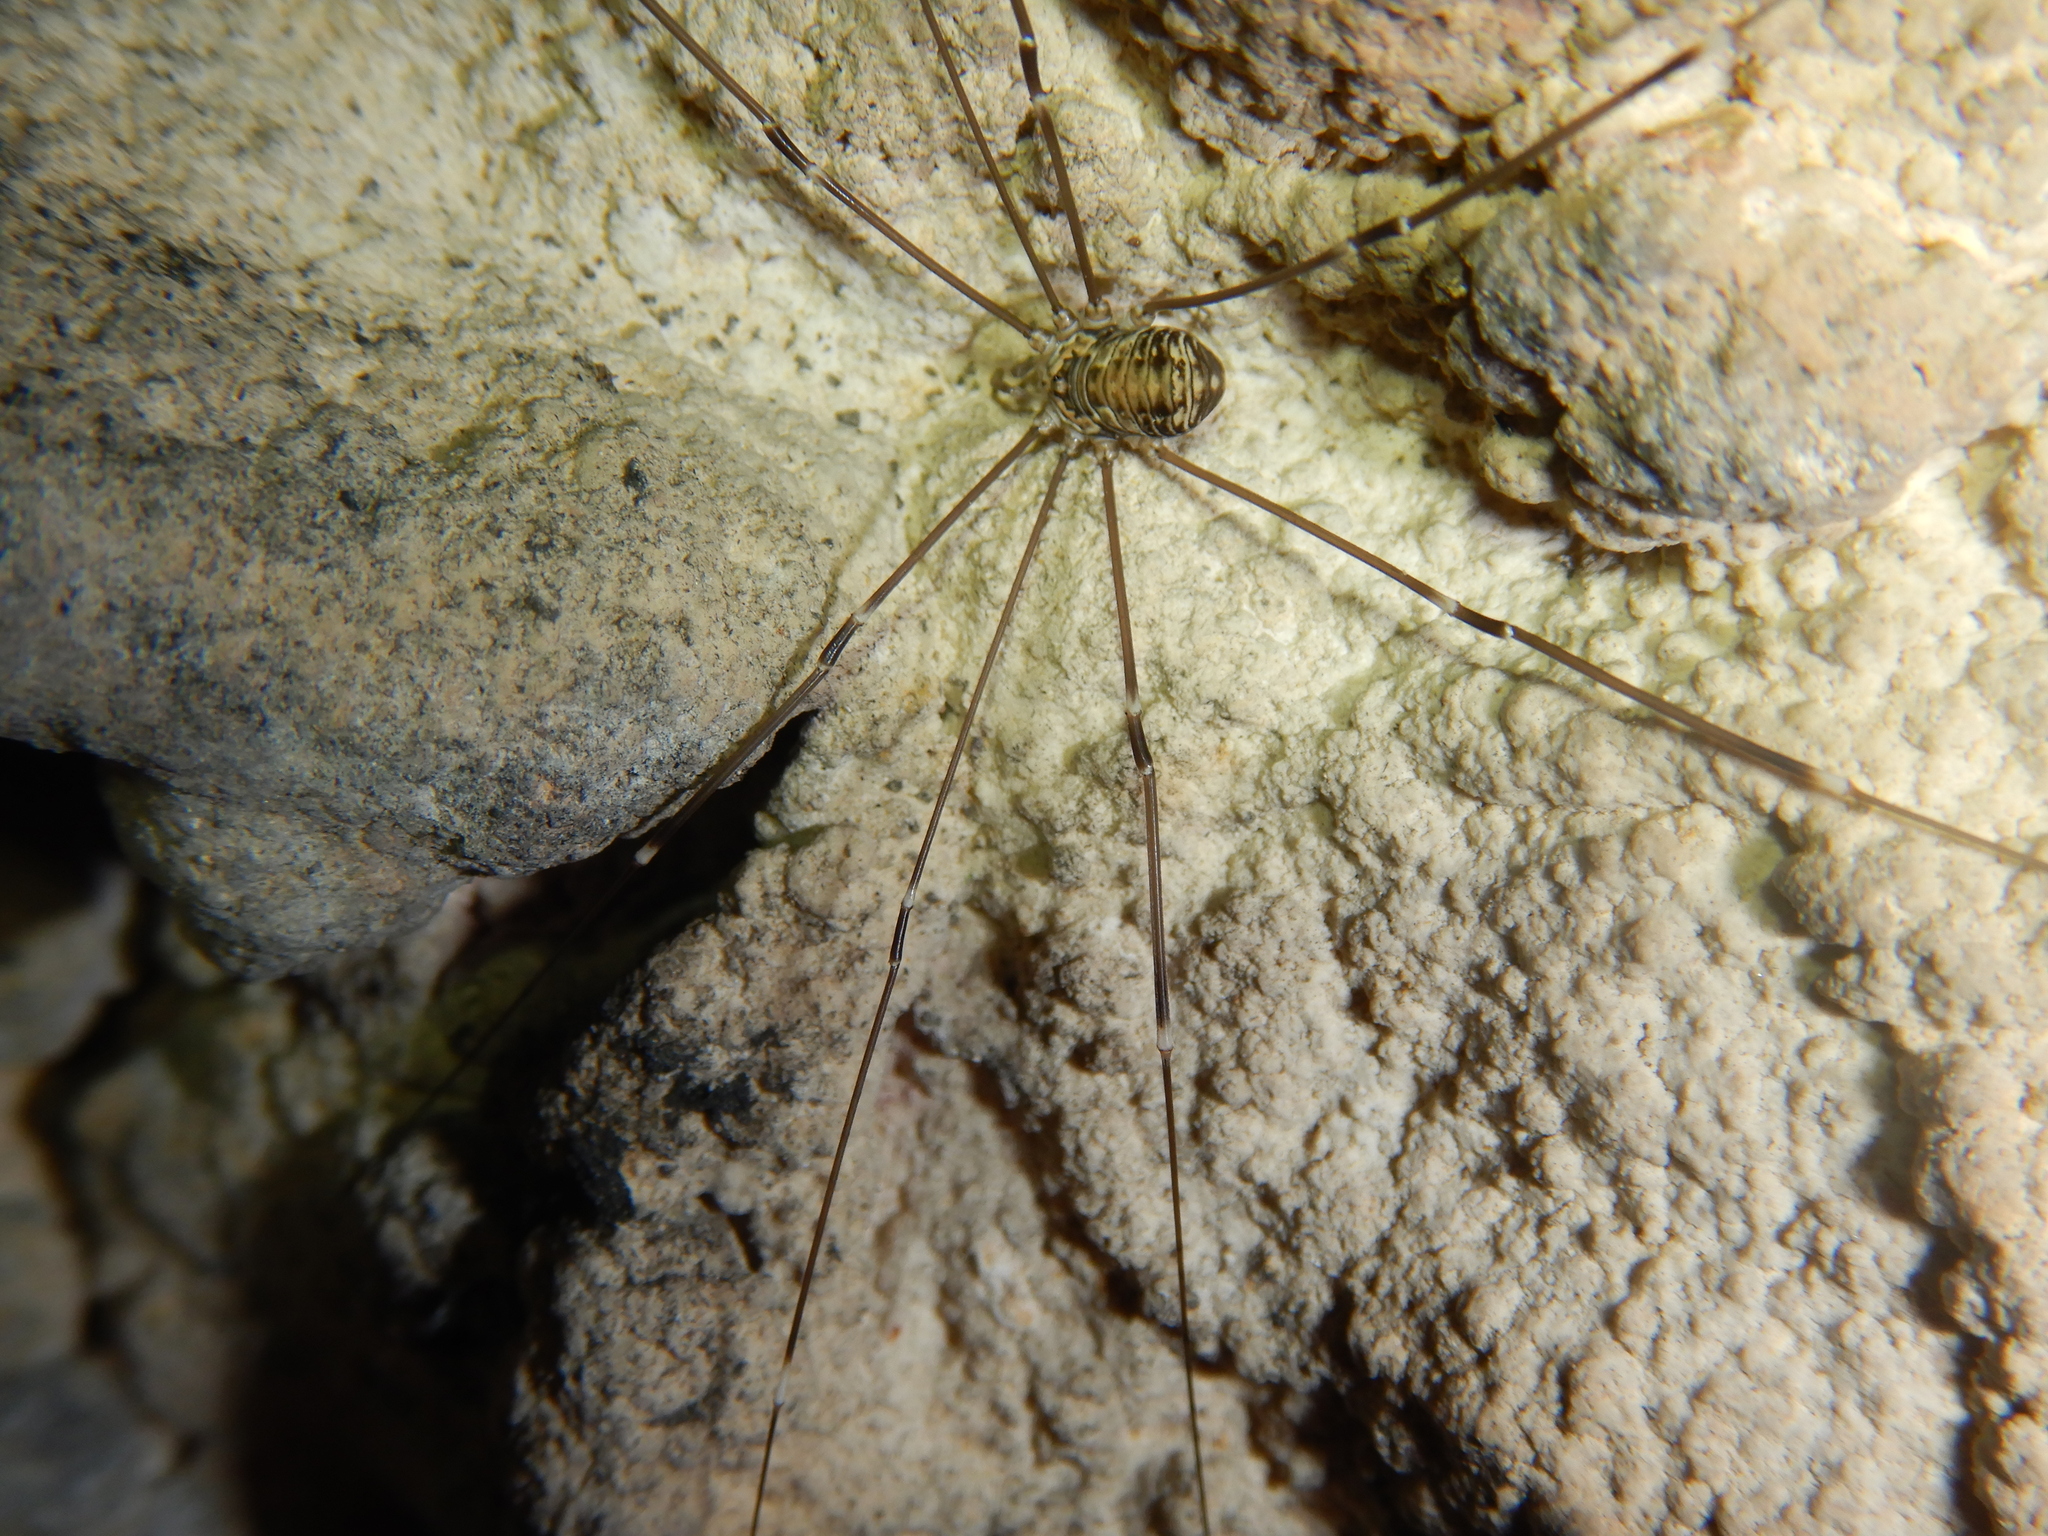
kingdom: Animalia
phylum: Arthropoda
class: Arachnida
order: Opiliones
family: Sclerosomatidae
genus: Leiobunum
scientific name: Leiobunum limbatum
